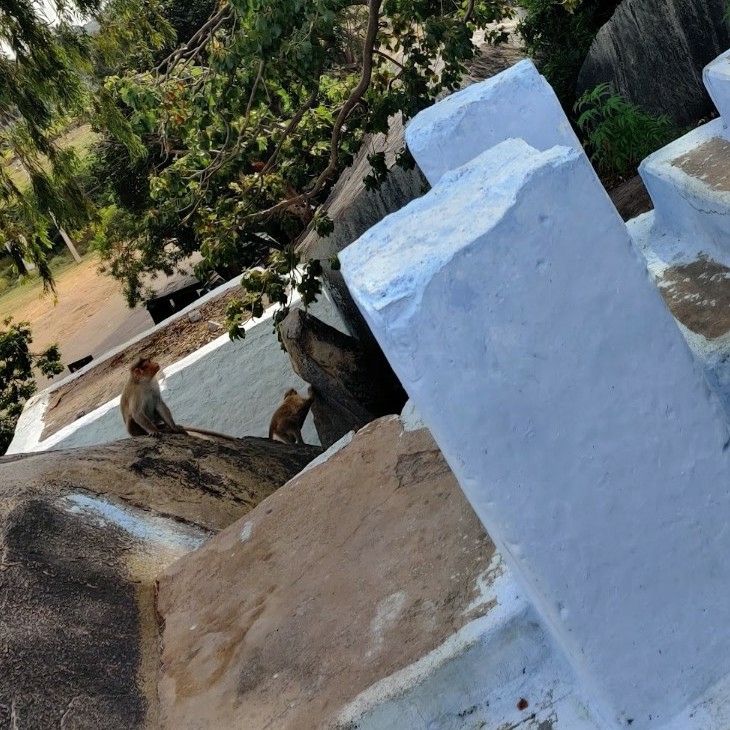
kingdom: Animalia
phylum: Chordata
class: Mammalia
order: Primates
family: Cercopithecidae
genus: Macaca
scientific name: Macaca radiata
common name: Bonnet macaque
